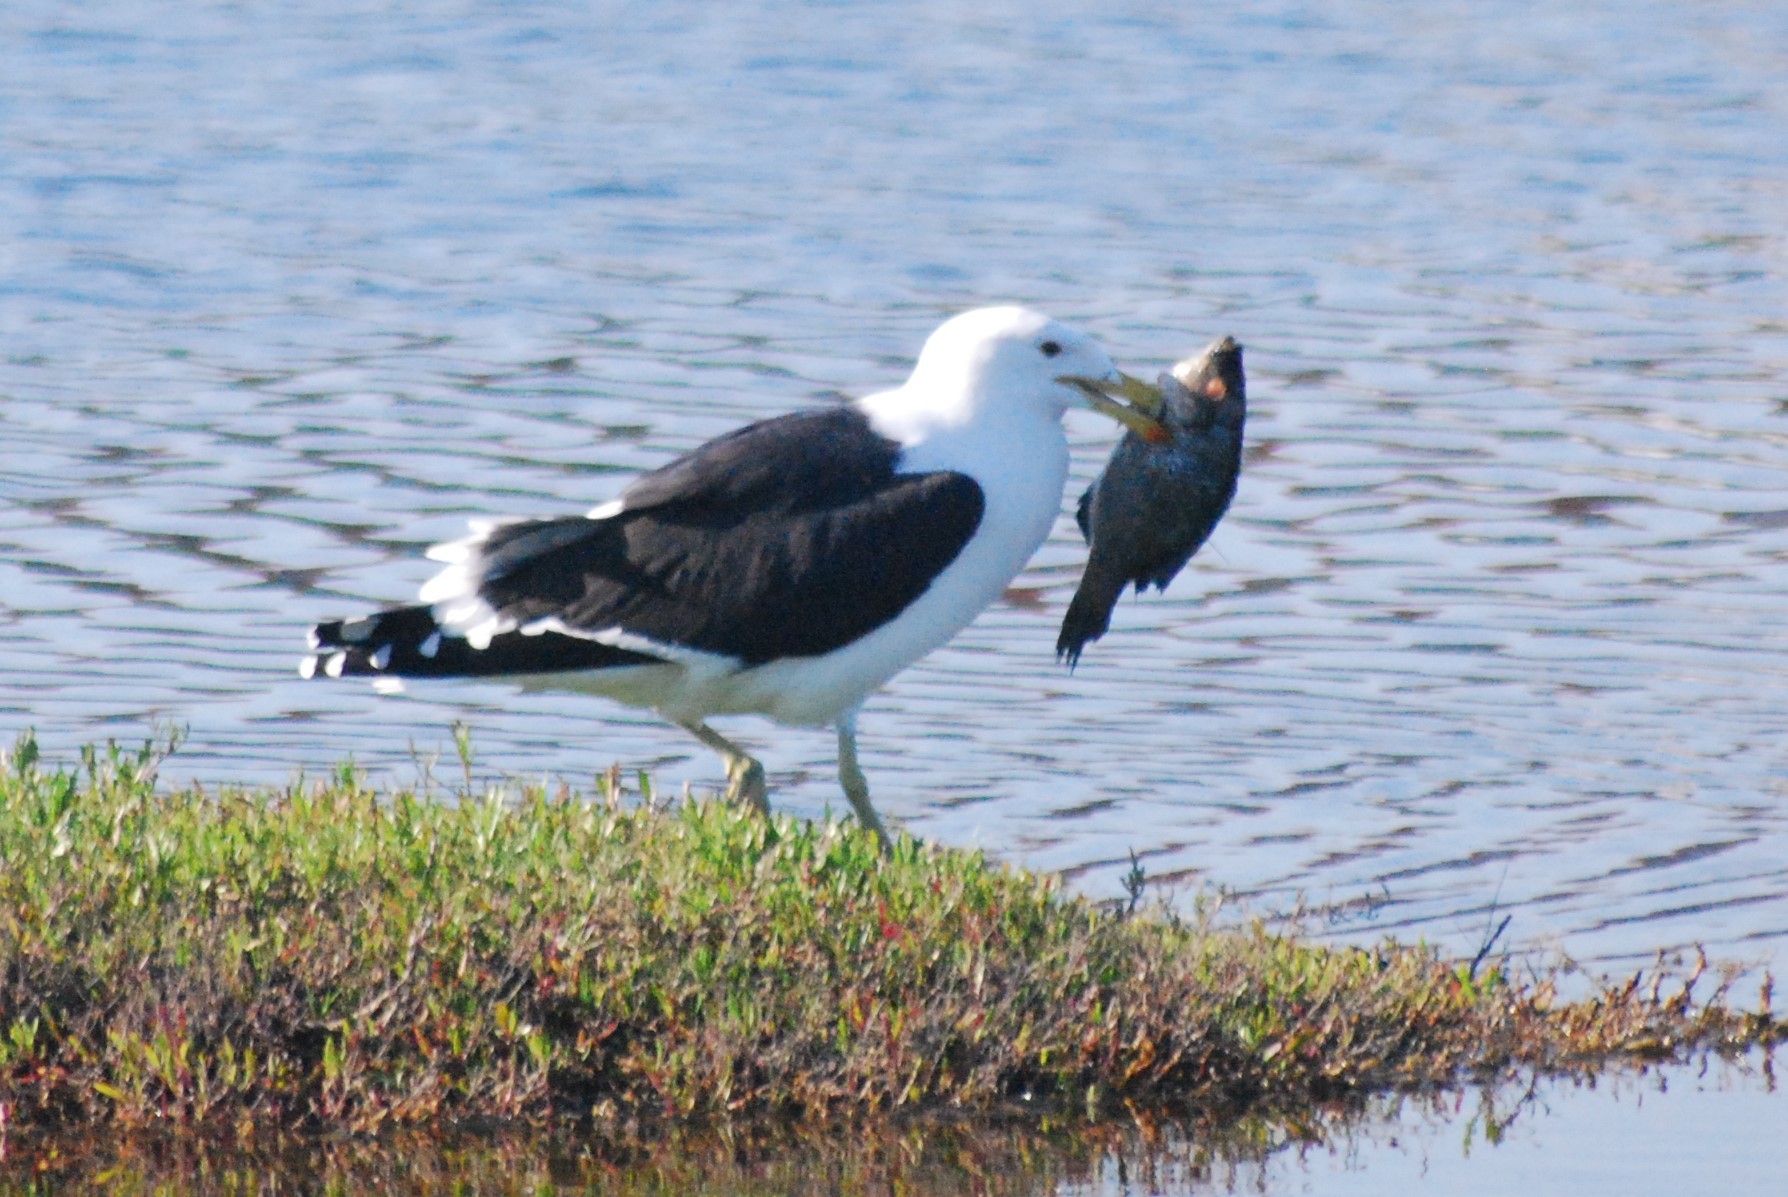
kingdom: Animalia
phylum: Chordata
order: Perciformes
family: Cichlidae
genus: Oreochromis
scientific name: Oreochromis mossambicus
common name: Mozambique tilapia
